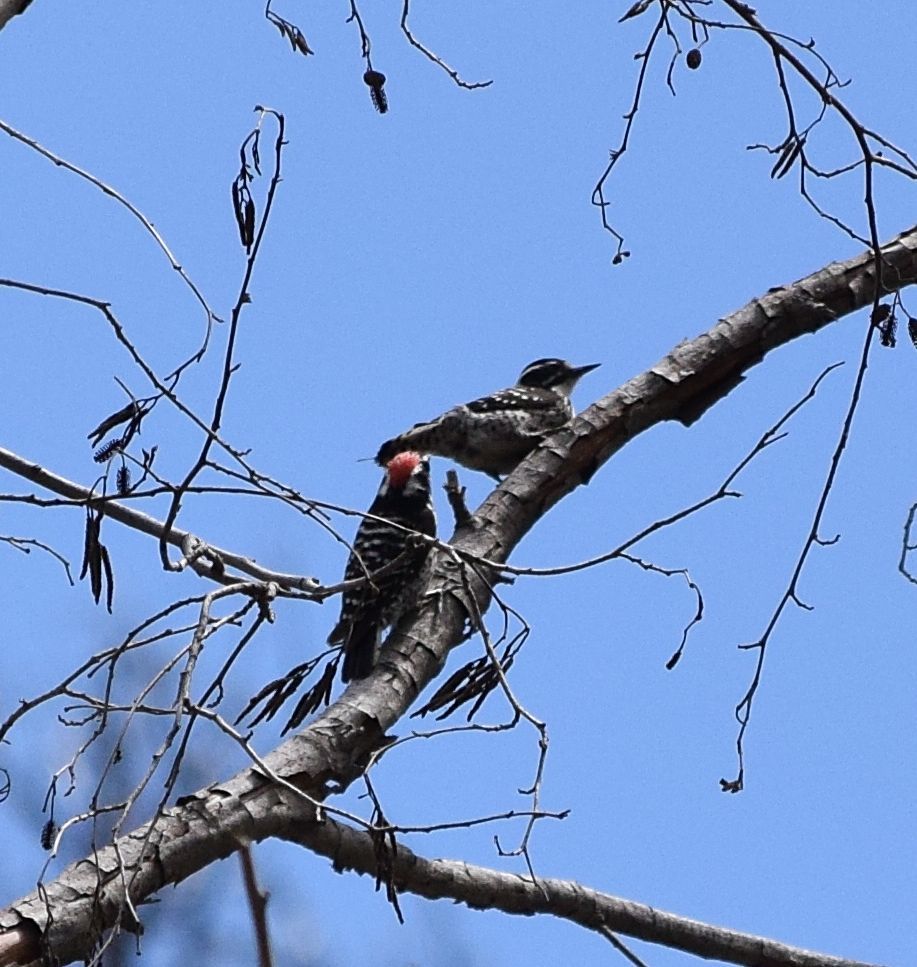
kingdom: Animalia
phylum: Chordata
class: Aves
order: Piciformes
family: Picidae
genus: Dryobates
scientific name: Dryobates nuttallii
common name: Nuttall's woodpecker
